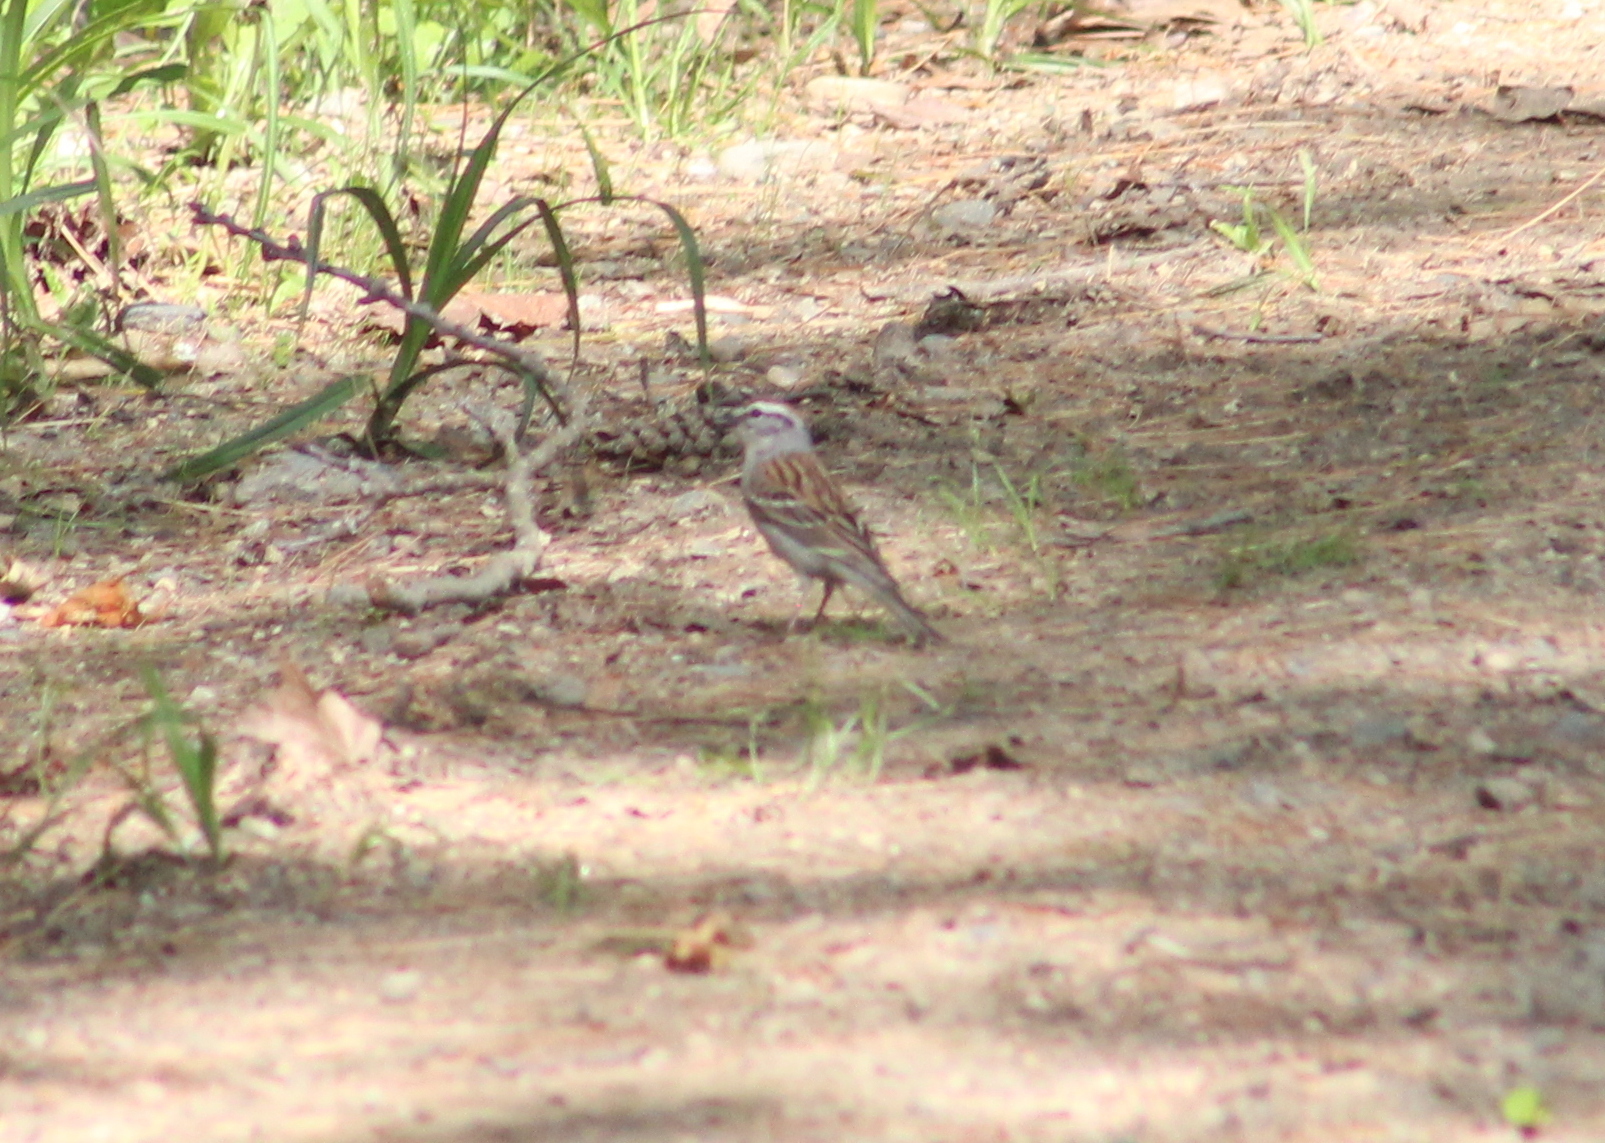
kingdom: Animalia
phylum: Chordata
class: Aves
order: Passeriformes
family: Passerellidae
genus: Spizella
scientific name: Spizella passerina
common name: Chipping sparrow
